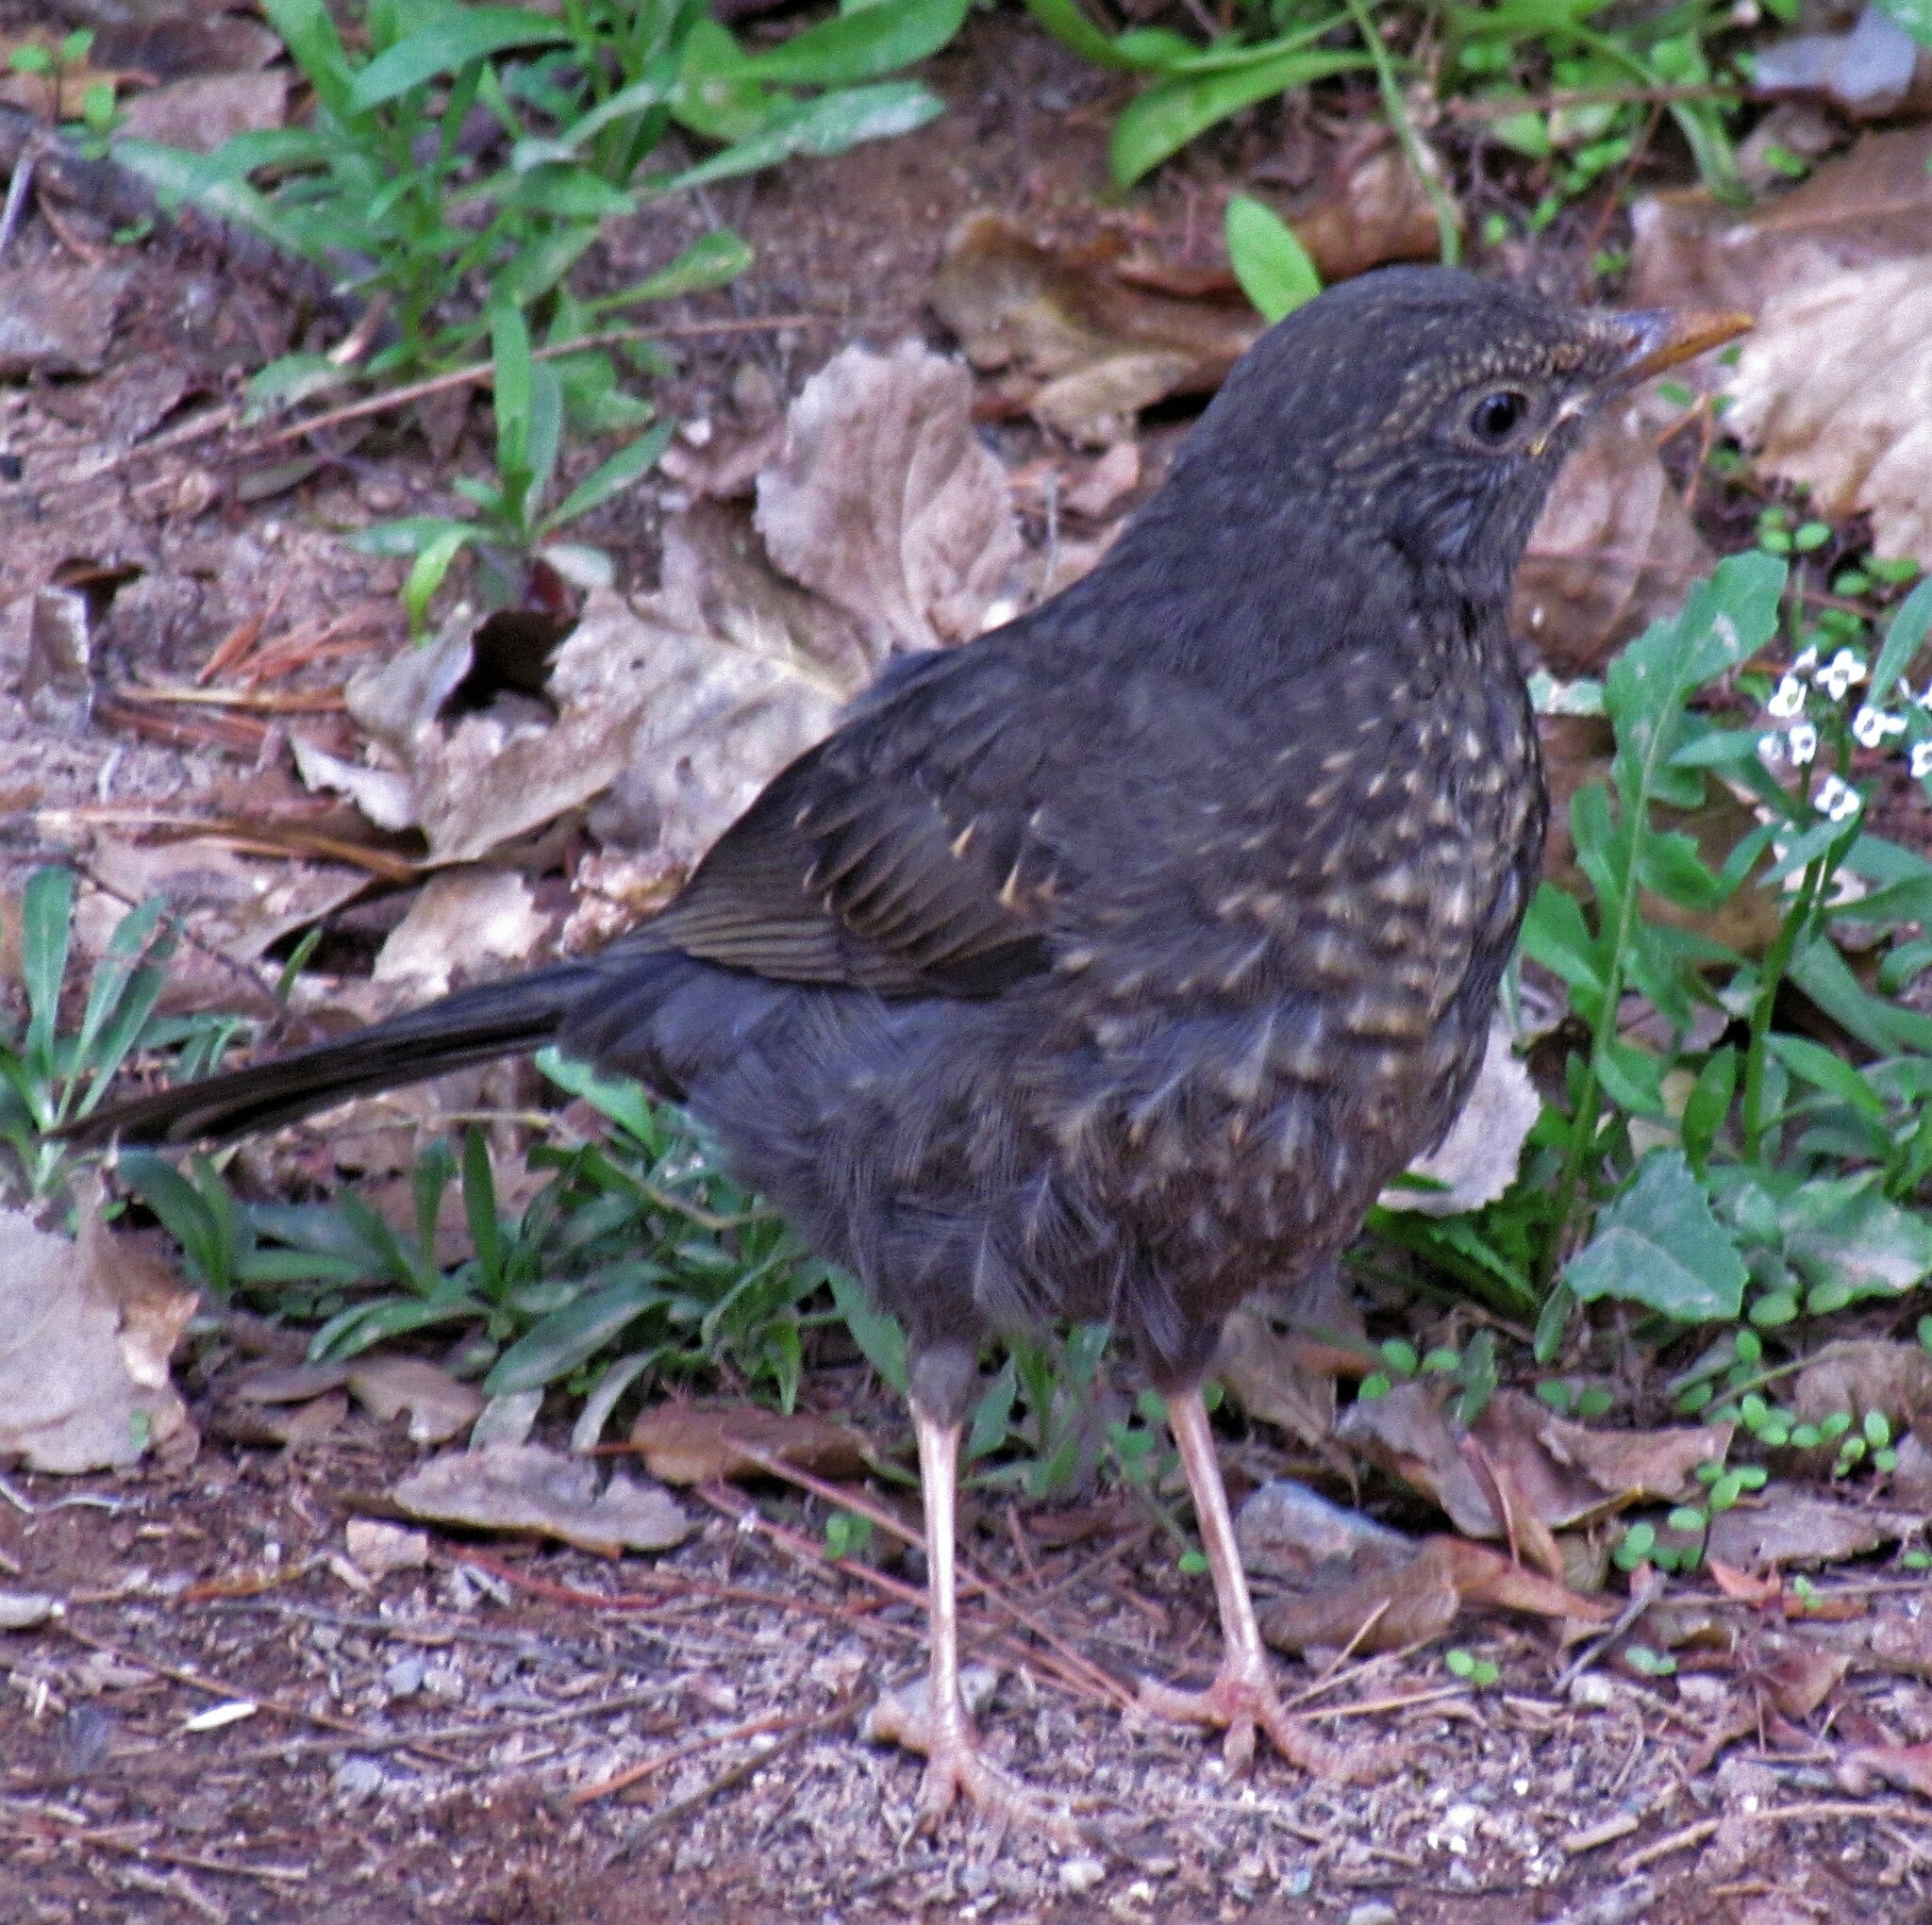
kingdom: Animalia
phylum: Chordata
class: Aves
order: Passeriformes
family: Turdidae
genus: Turdus
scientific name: Turdus chiguanco
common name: Chiguanco thrush
